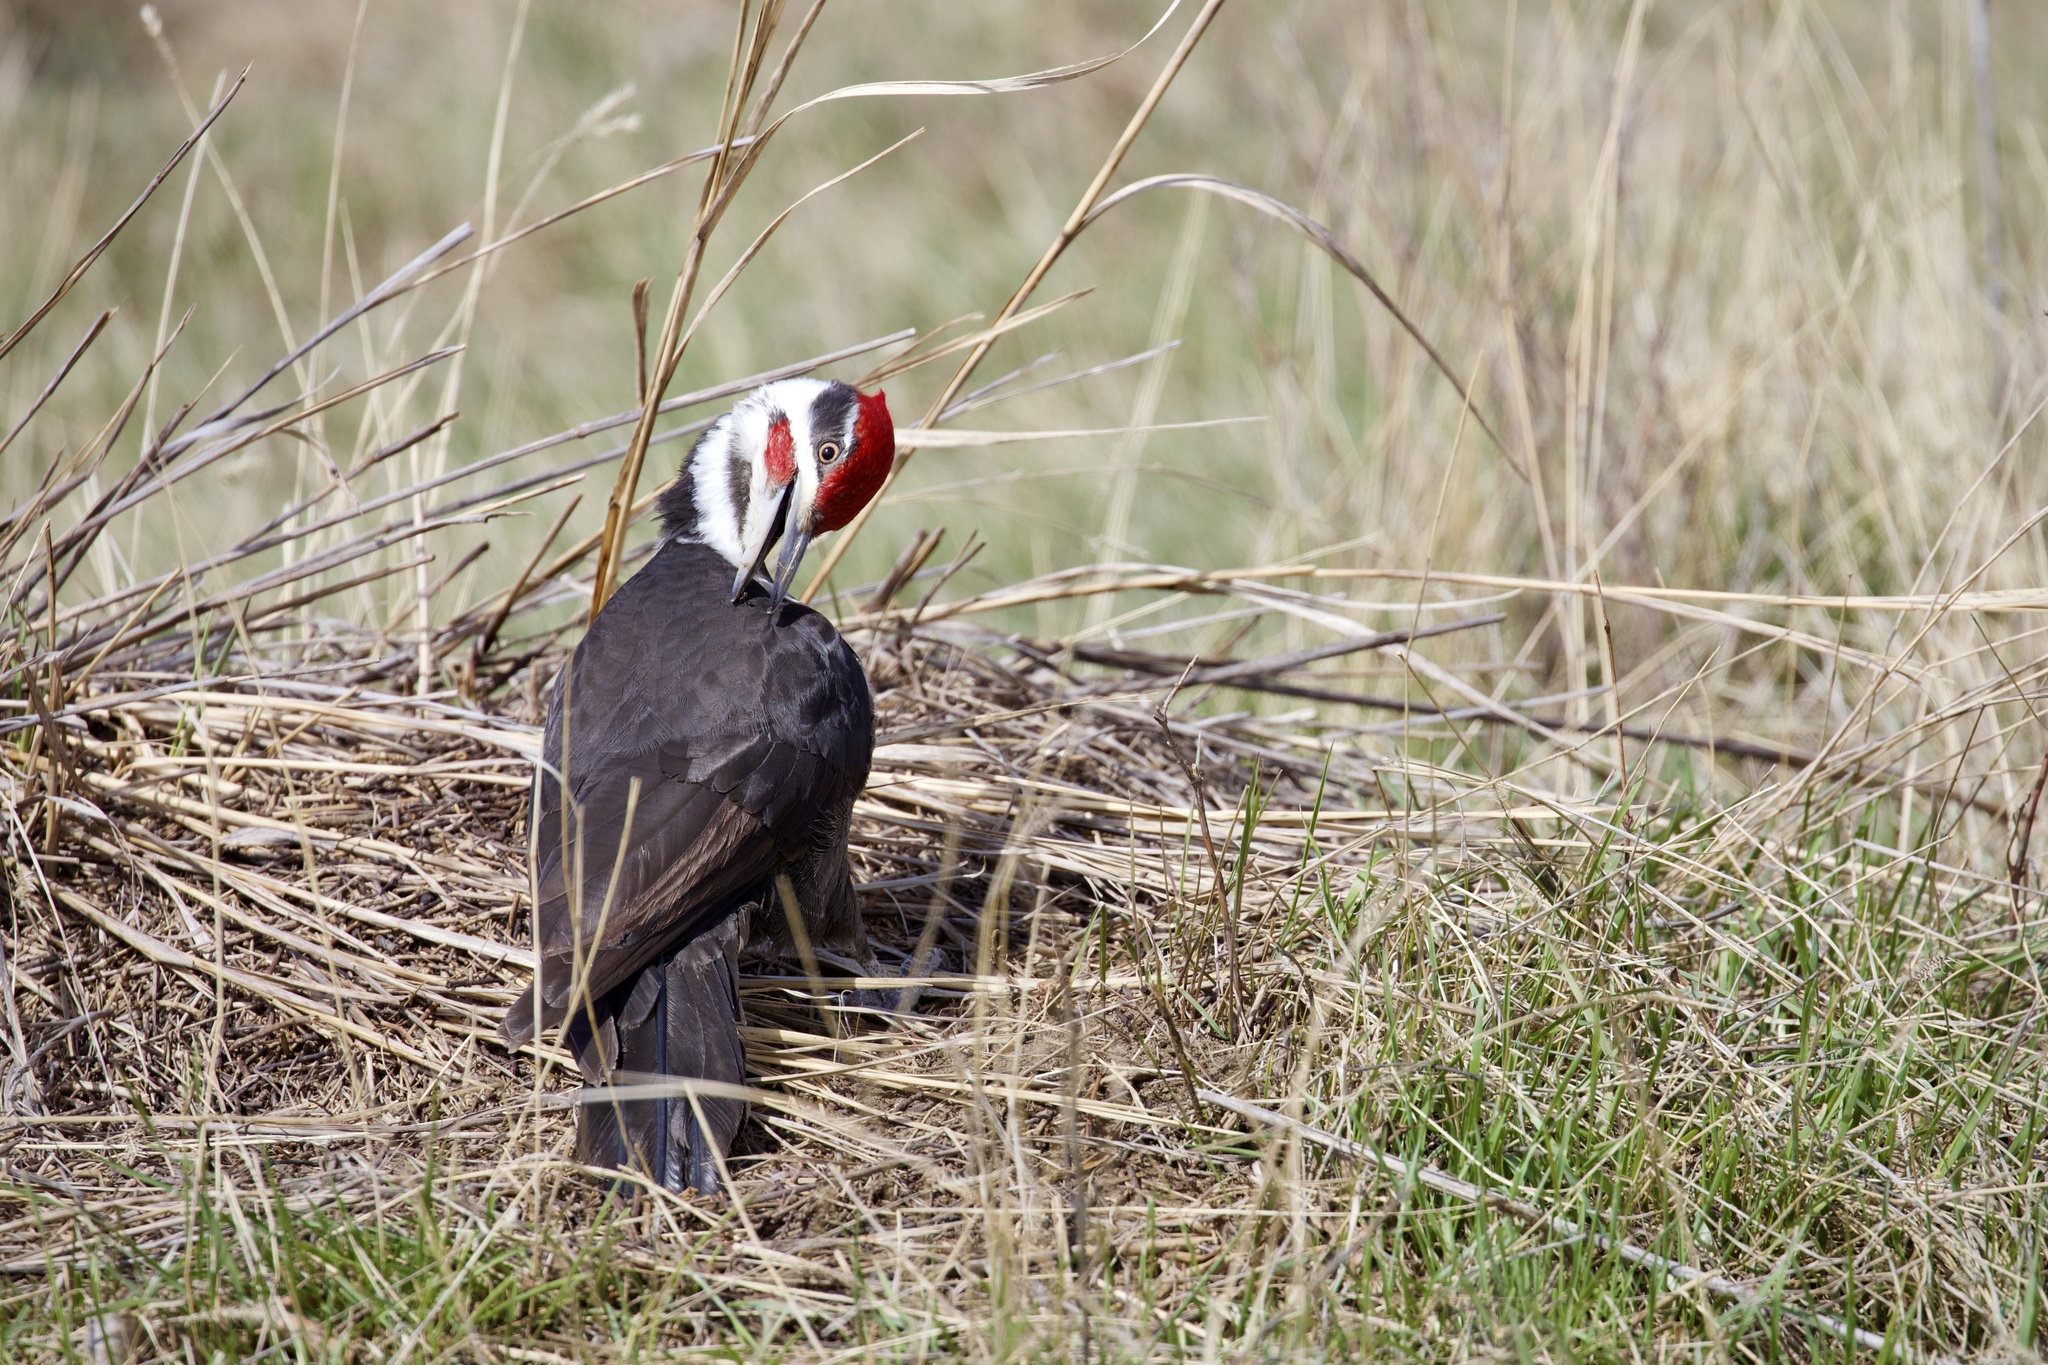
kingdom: Animalia
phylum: Chordata
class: Aves
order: Piciformes
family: Picidae
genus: Dryocopus
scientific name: Dryocopus pileatus
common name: Pileated woodpecker
